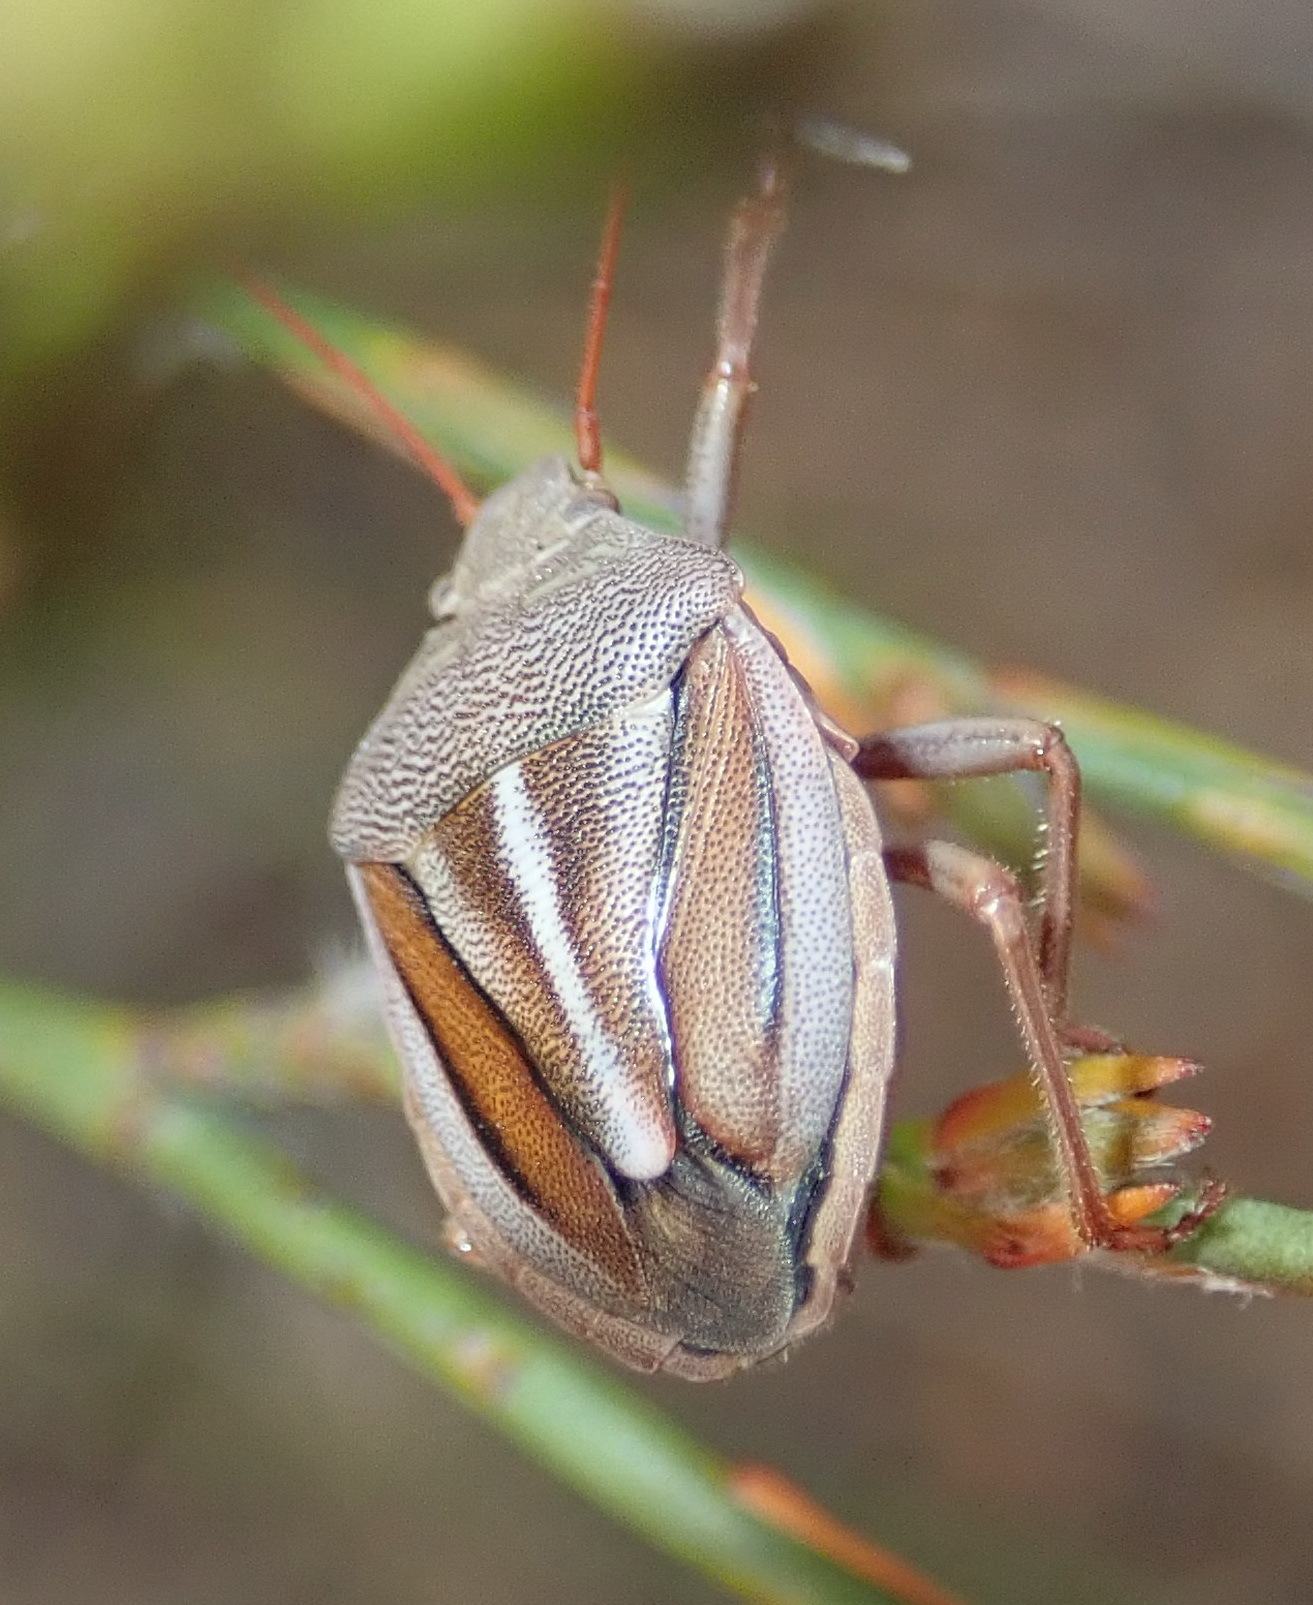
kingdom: Animalia
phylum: Arthropoda
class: Insecta
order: Hemiptera
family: Pentatomidae
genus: Theloris
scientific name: Theloris costata
